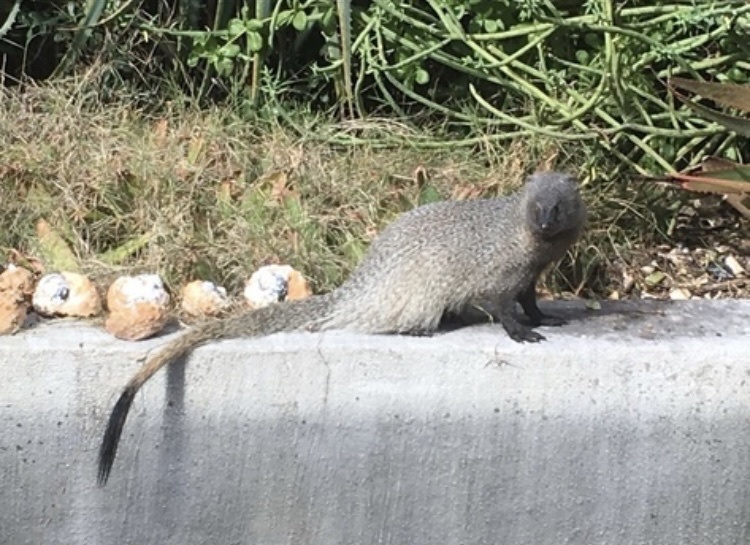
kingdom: Animalia
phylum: Chordata
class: Mammalia
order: Carnivora
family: Herpestidae
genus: Herpestes
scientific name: Herpestes ichneumon
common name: Egyptian mongoose
